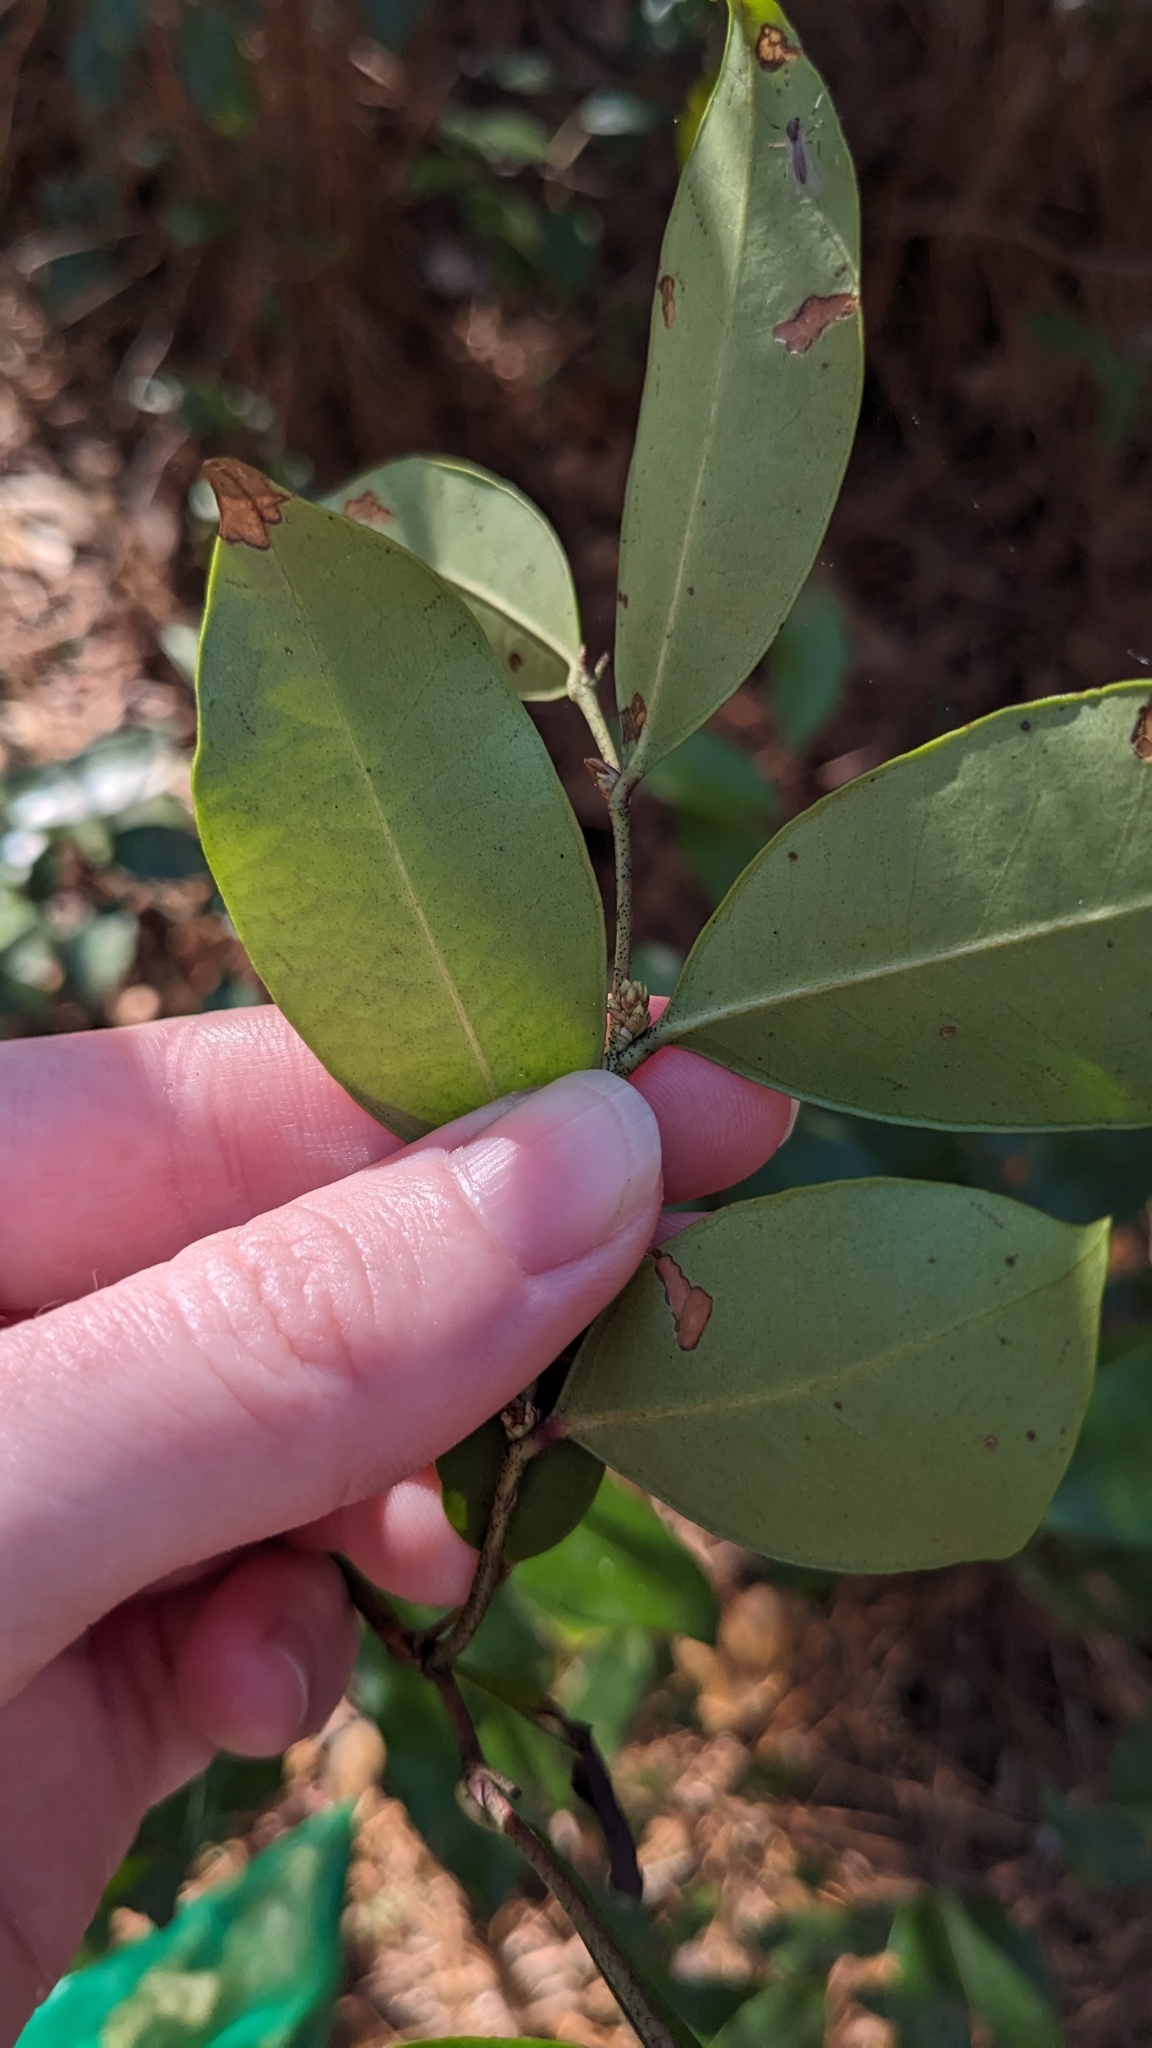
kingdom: Plantae
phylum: Tracheophyta
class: Magnoliopsida
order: Ericales
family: Ericaceae
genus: Lyonia
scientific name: Lyonia lucida
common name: Fetterbush
